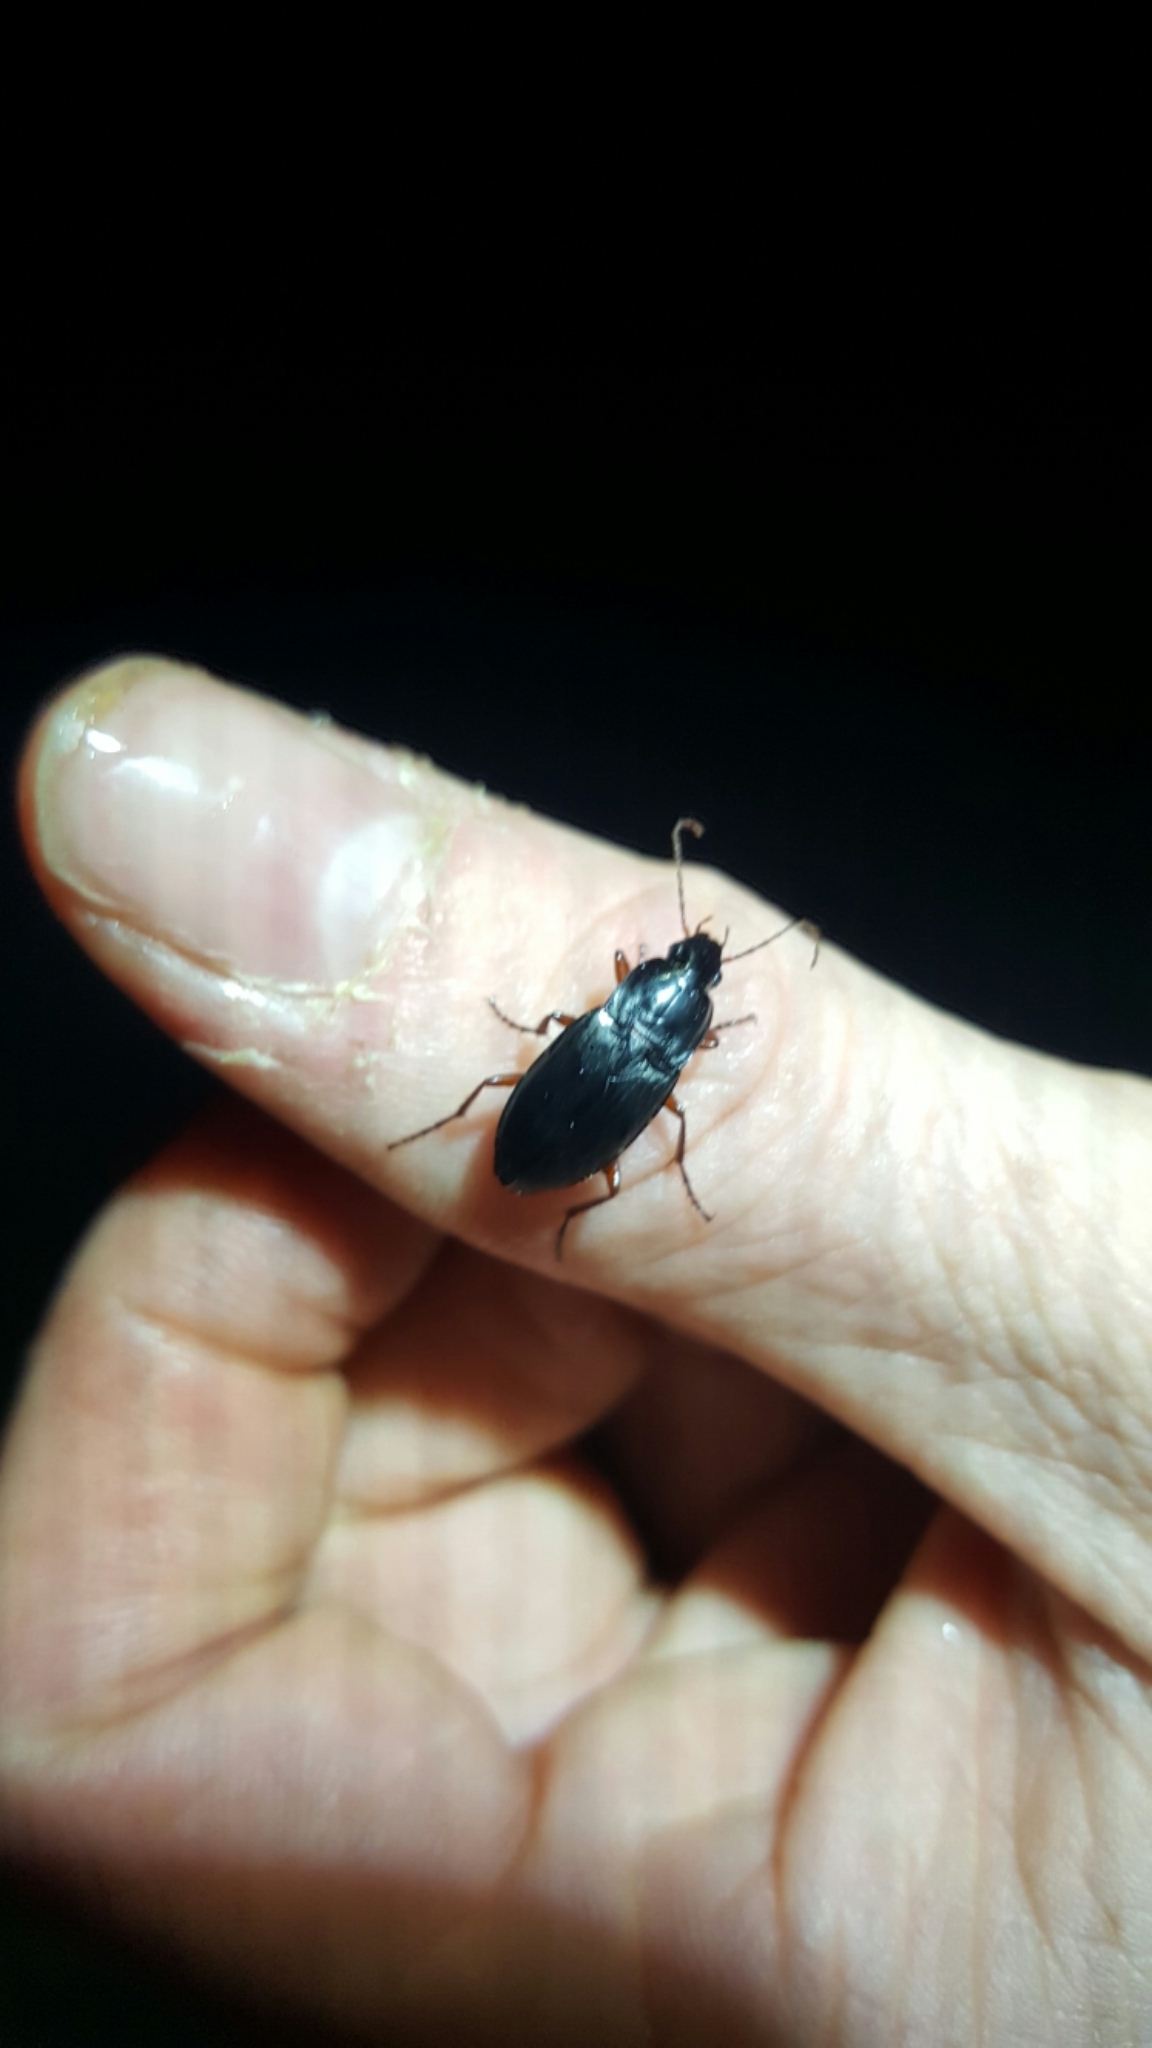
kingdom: Animalia
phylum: Arthropoda
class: Insecta
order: Coleoptera
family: Carabidae
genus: Calathus
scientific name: Calathus fuscipes
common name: Dark-footed harp ground beetle
